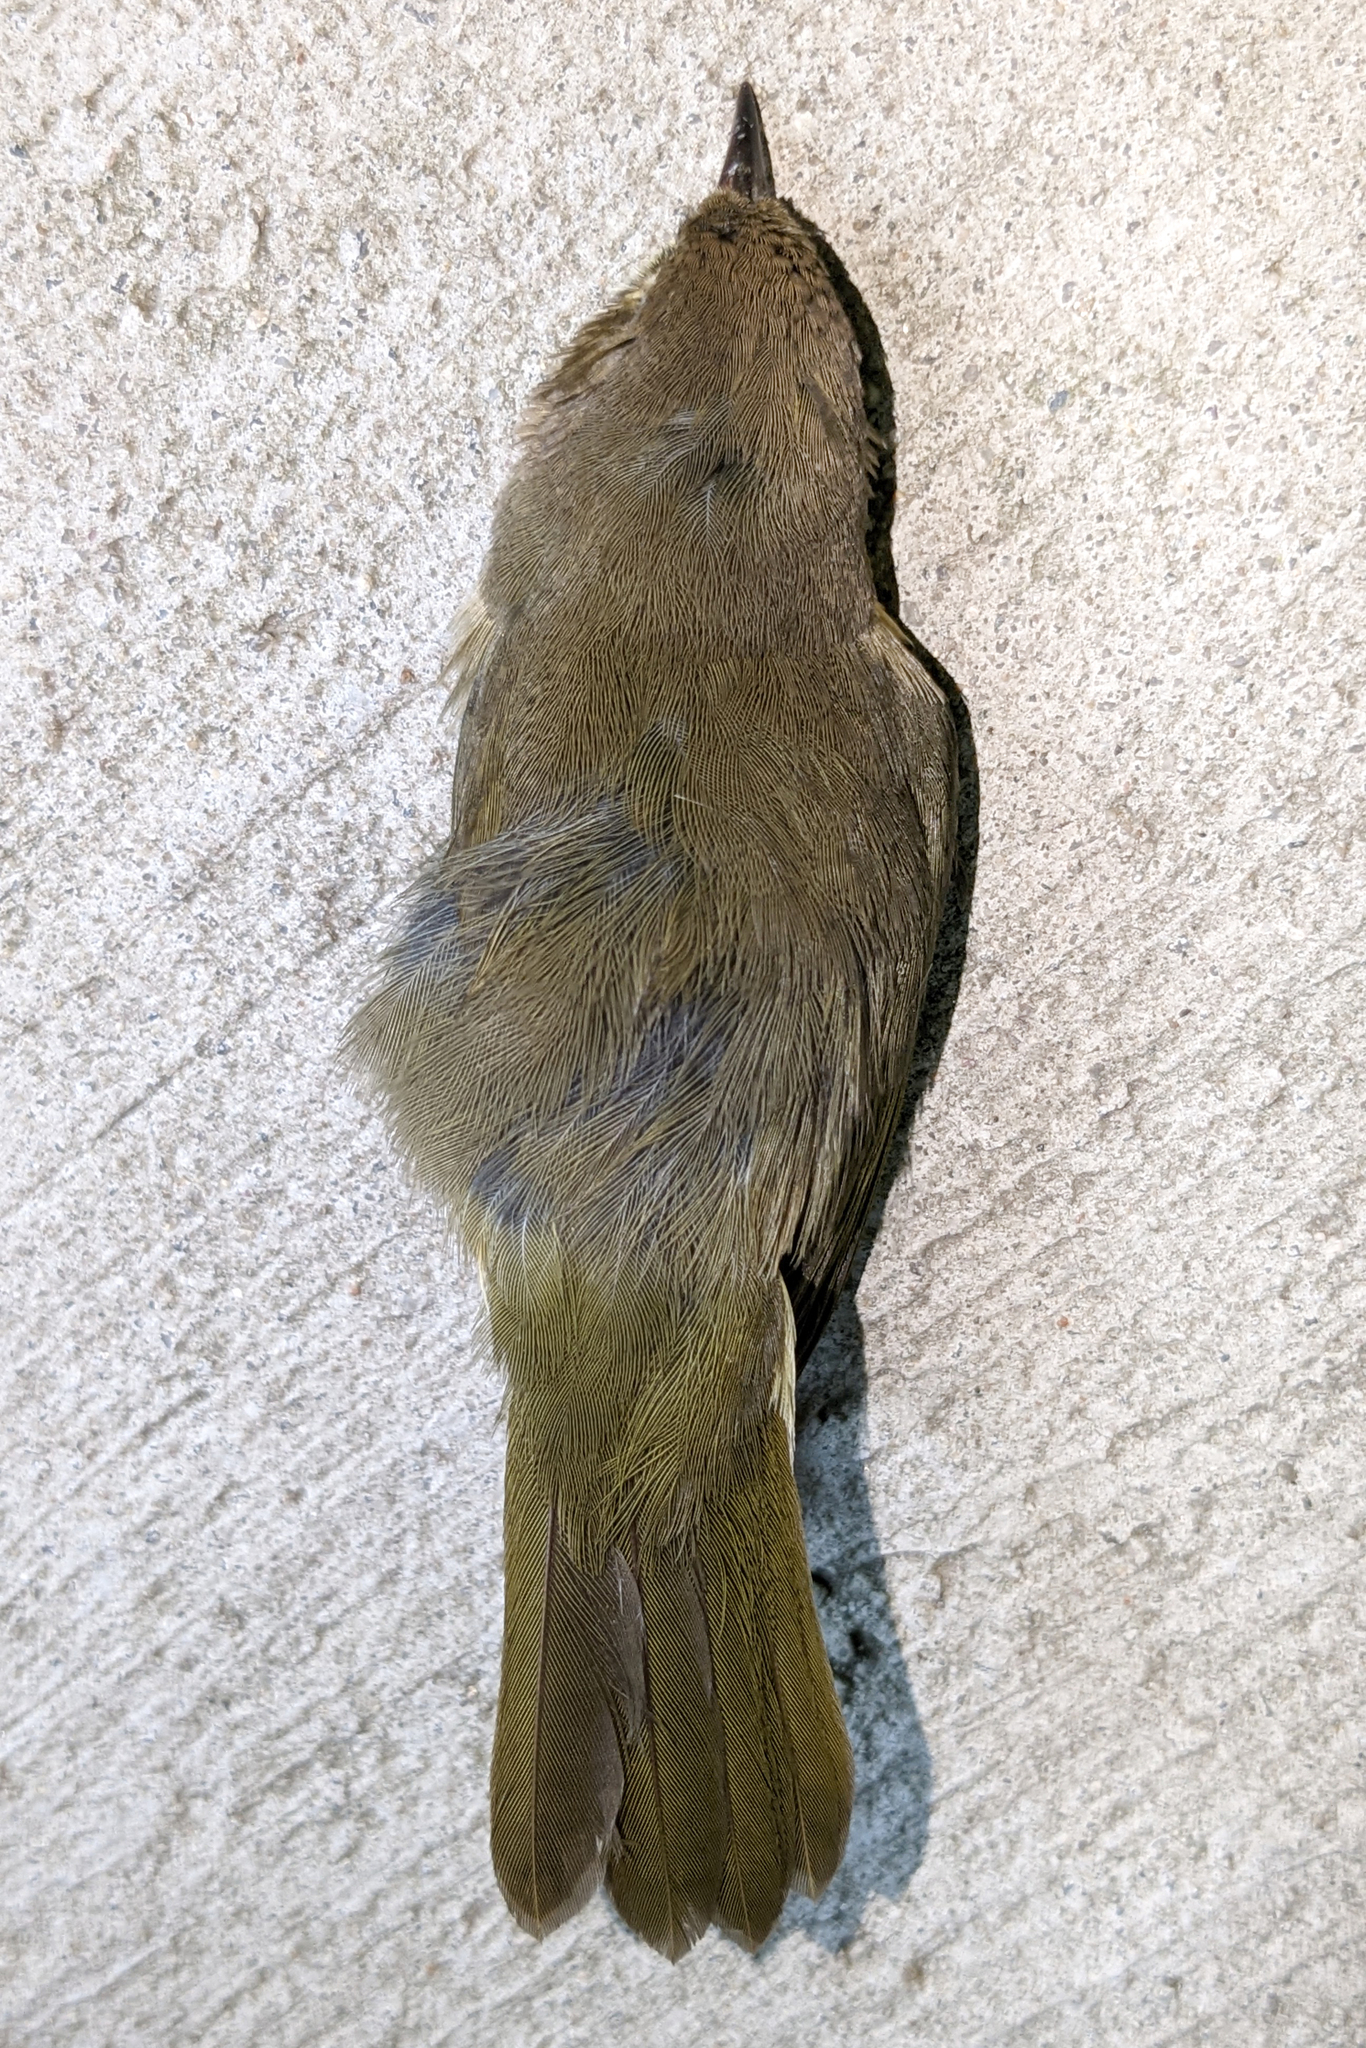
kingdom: Animalia
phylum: Chordata
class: Aves
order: Passeriformes
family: Parulidae
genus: Geothlypis
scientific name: Geothlypis trichas
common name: Common yellowthroat
